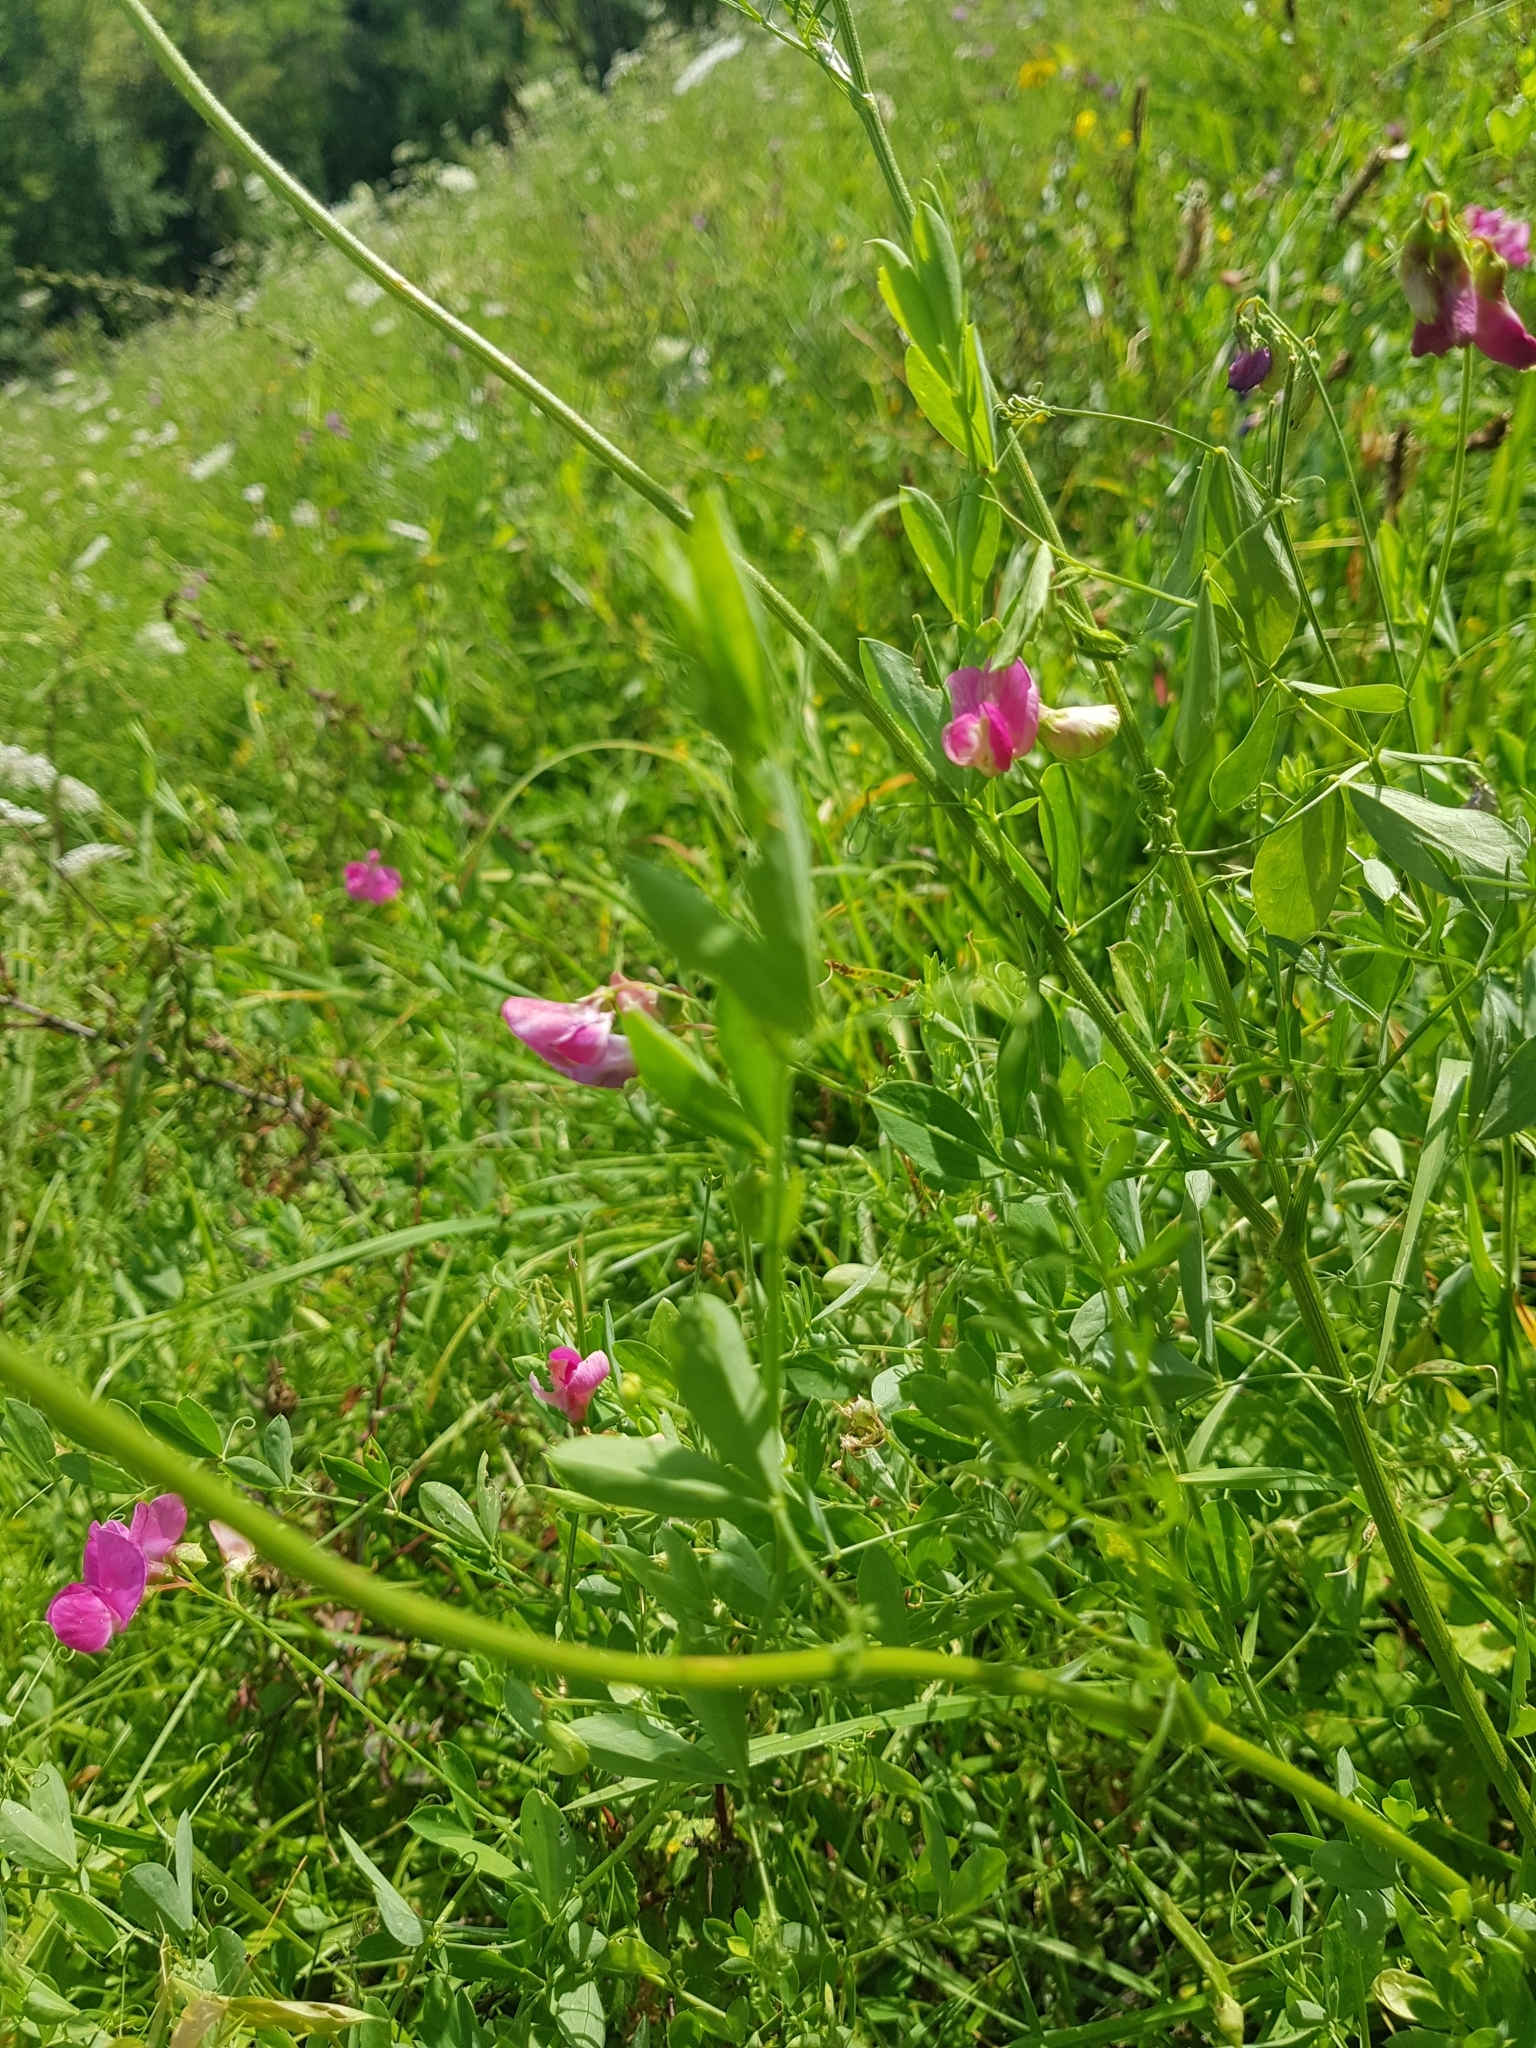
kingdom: Plantae
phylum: Tracheophyta
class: Magnoliopsida
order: Fabales
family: Fabaceae
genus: Lathyrus
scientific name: Lathyrus tuberosus
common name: Tuberous pea
